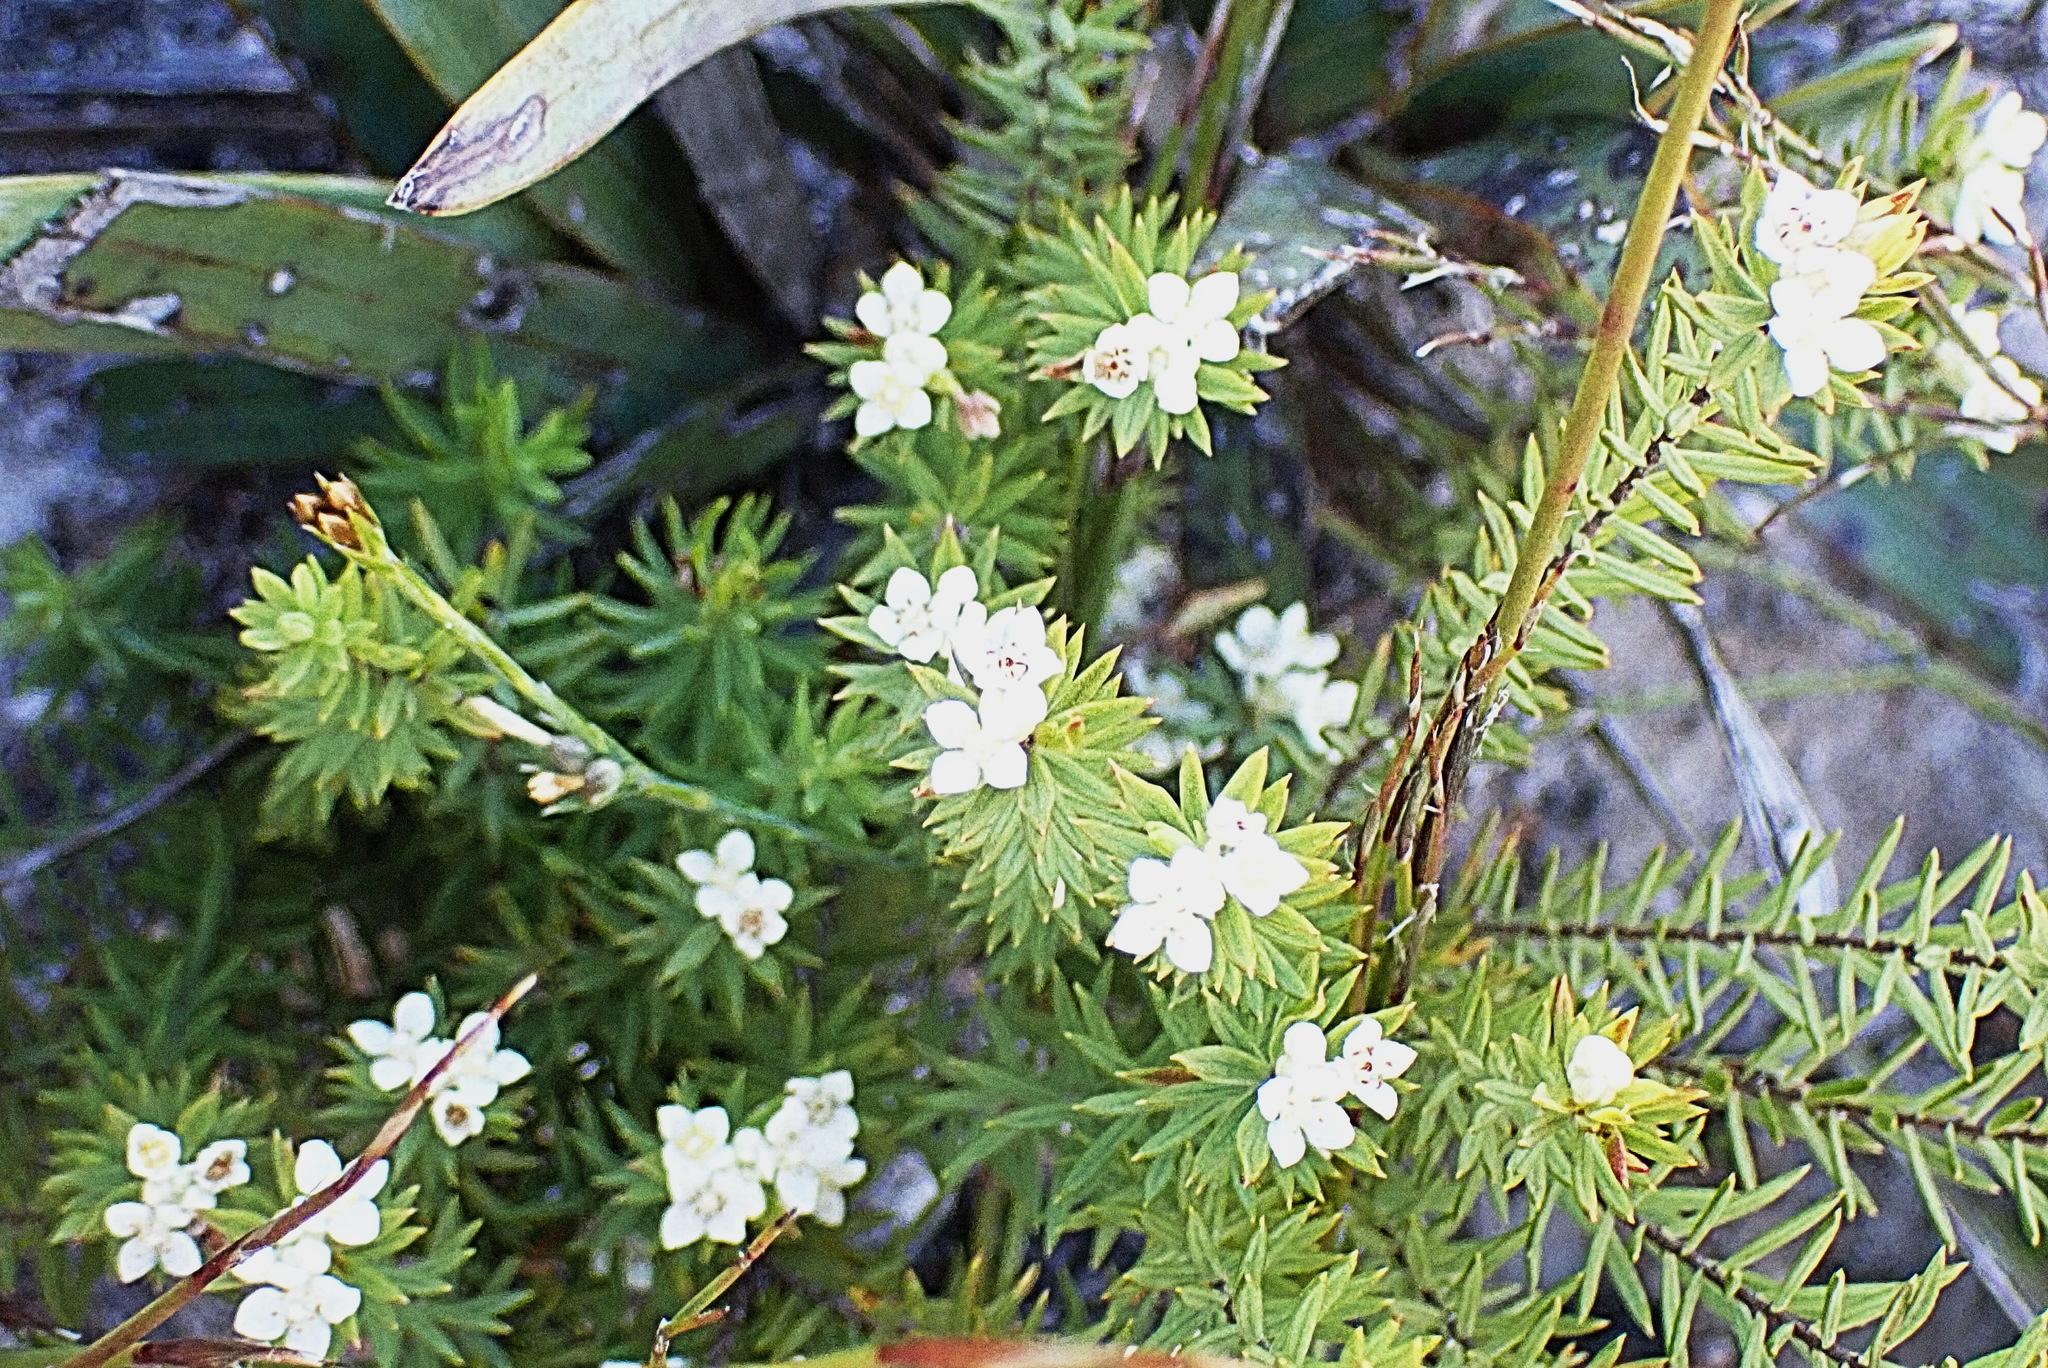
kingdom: Plantae
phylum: Tracheophyta
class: Magnoliopsida
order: Malvales
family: Thymelaeaceae
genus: Lachnaea
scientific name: Lachnaea burchellii
